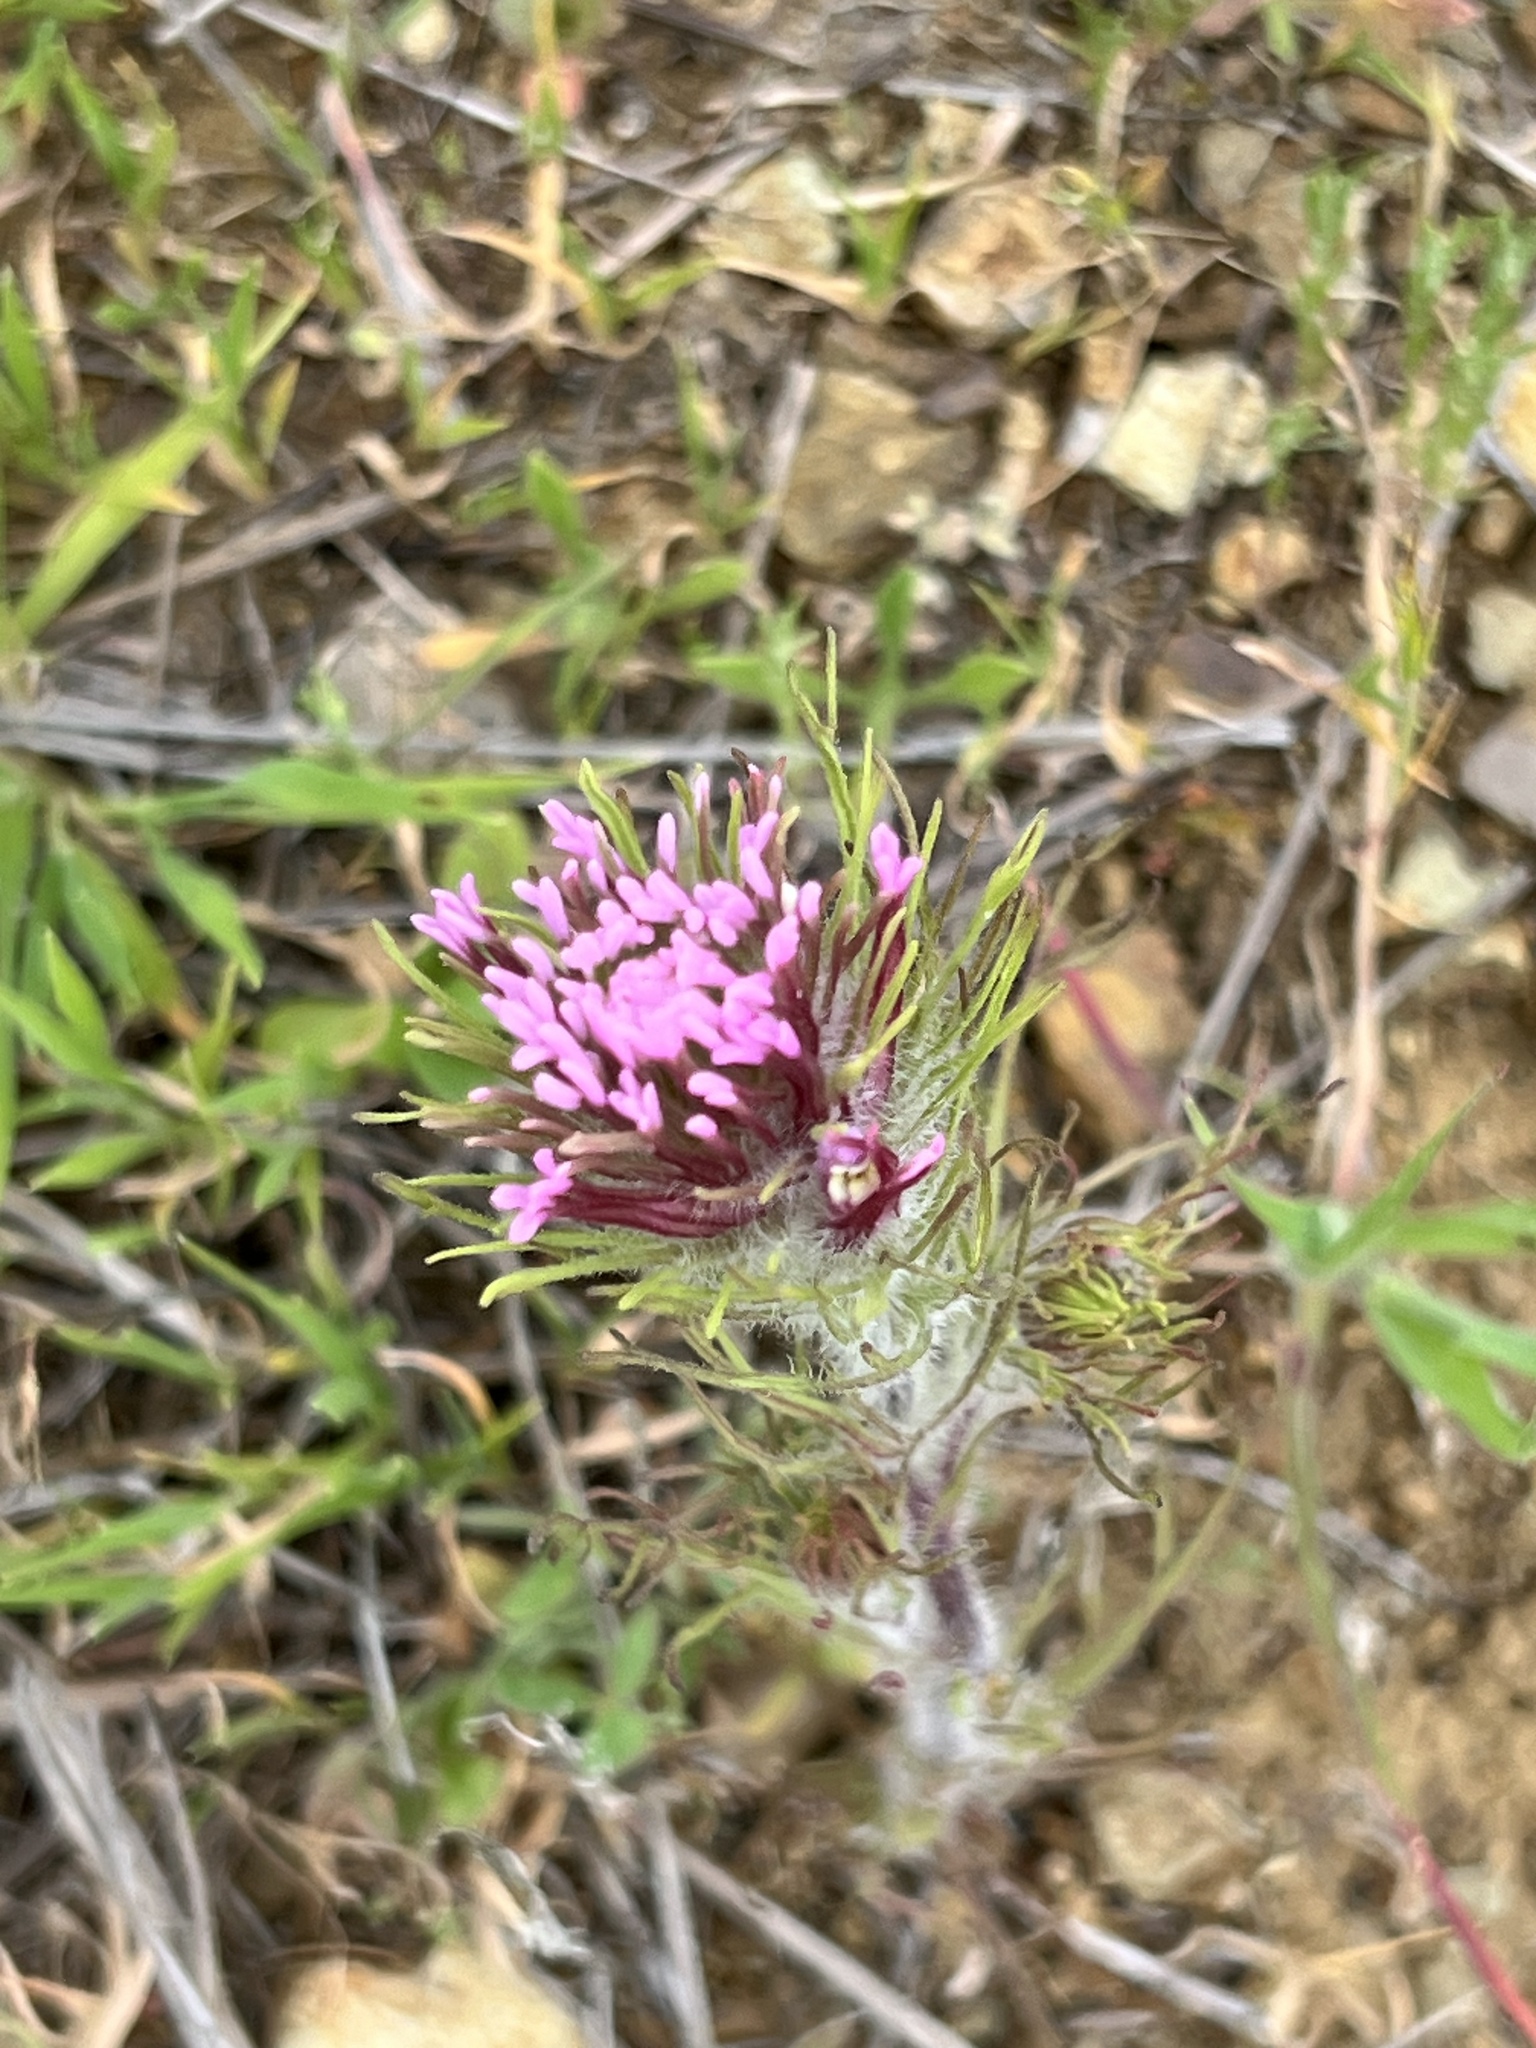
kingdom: Plantae
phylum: Tracheophyta
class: Magnoliopsida
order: Lamiales
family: Orobanchaceae
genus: Castilleja
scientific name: Castilleja exserta
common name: Purple owl-clover
